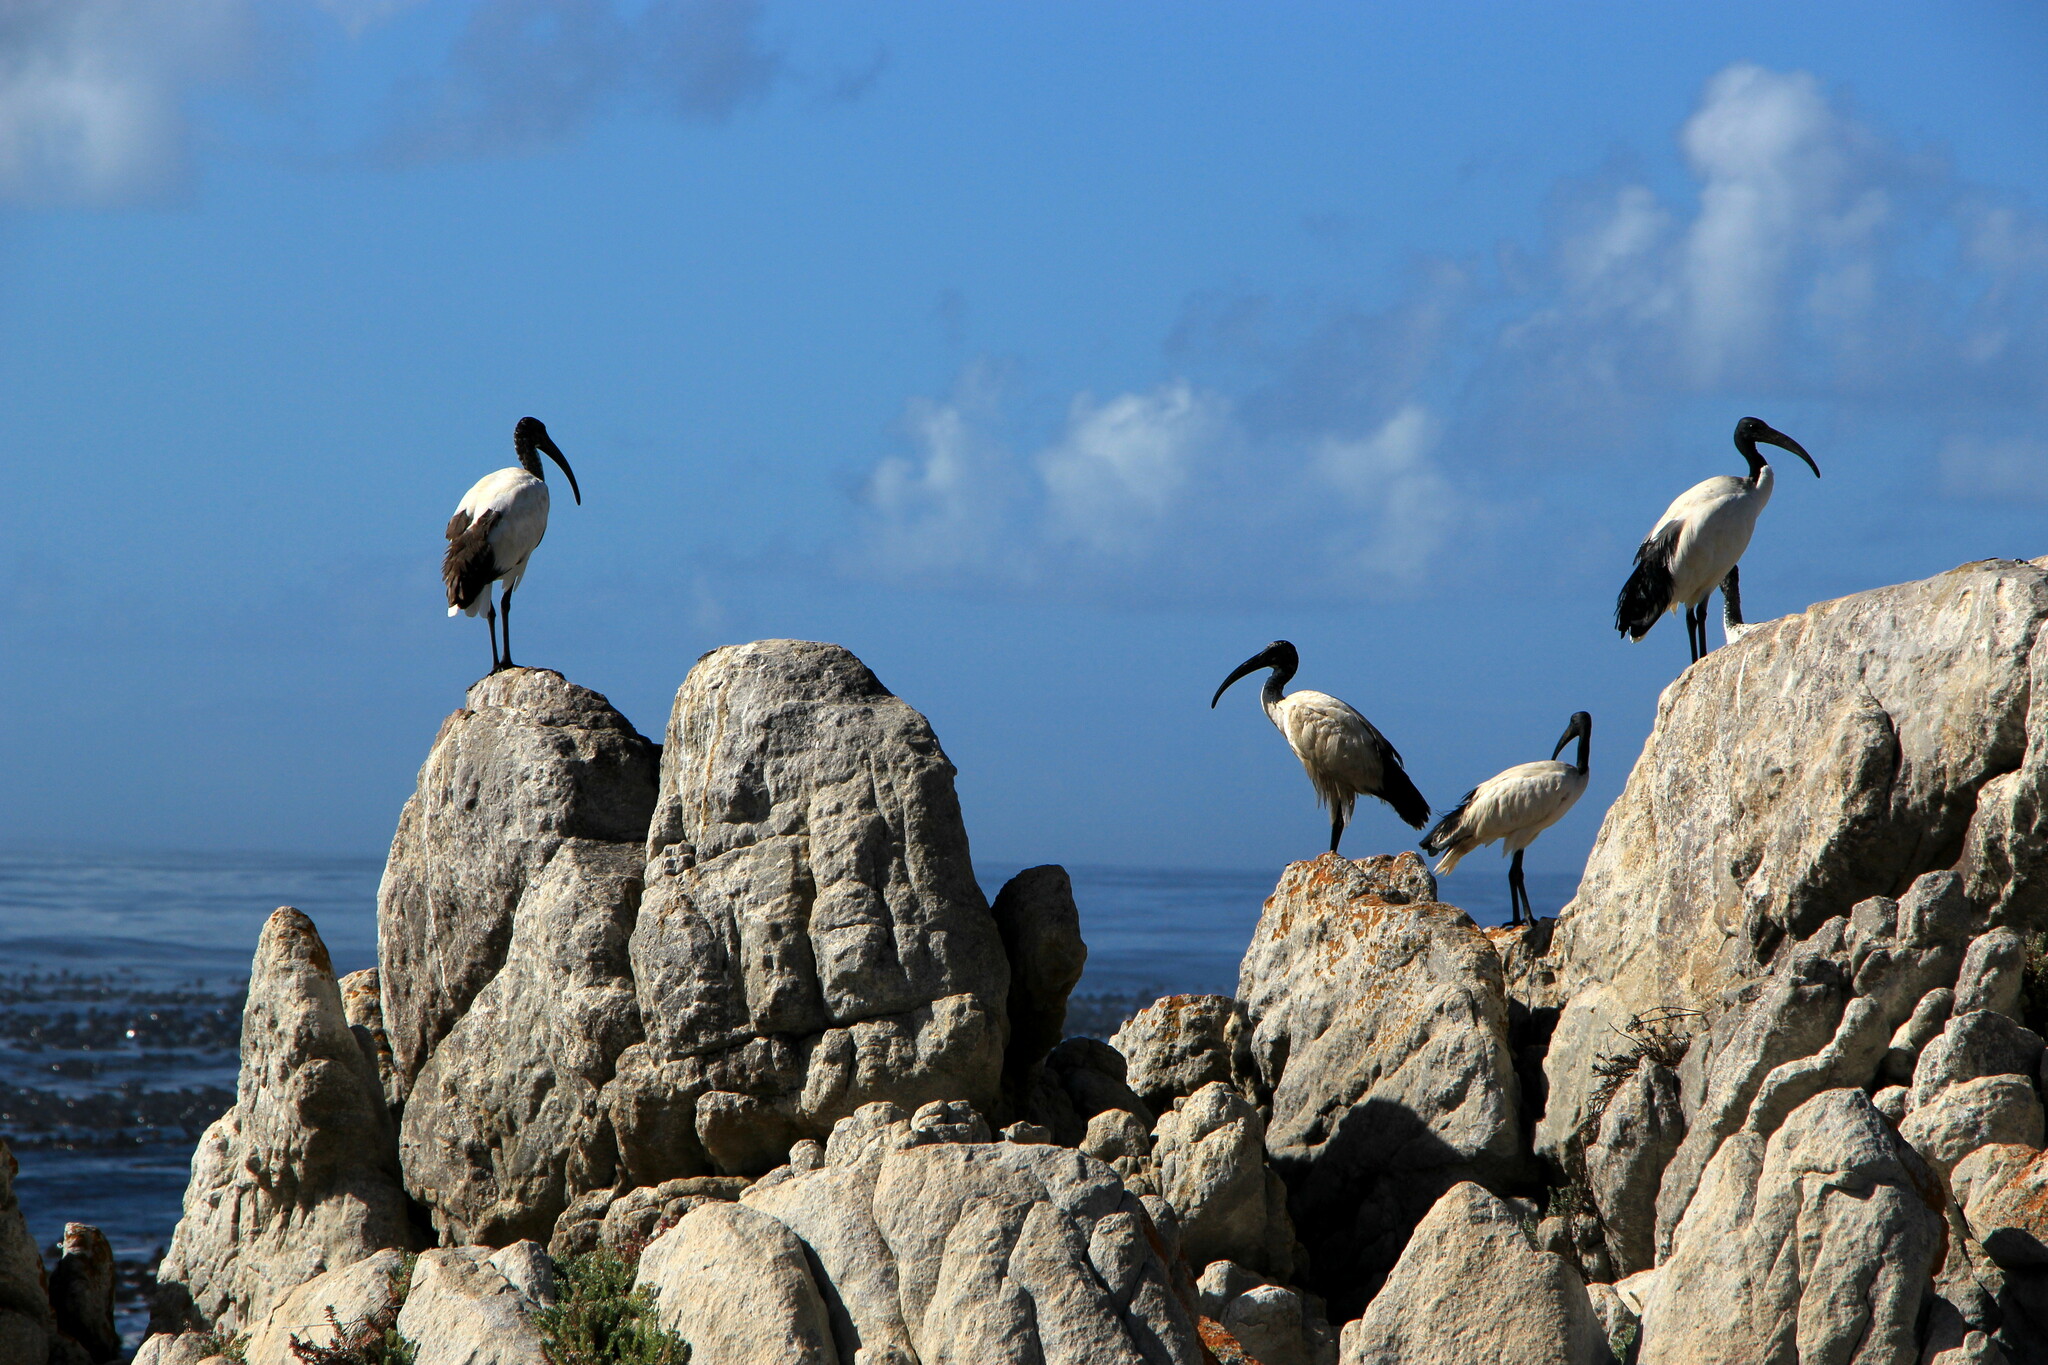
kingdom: Animalia
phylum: Chordata
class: Aves
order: Pelecaniformes
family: Threskiornithidae
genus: Threskiornis
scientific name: Threskiornis aethiopicus
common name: Sacred ibis
